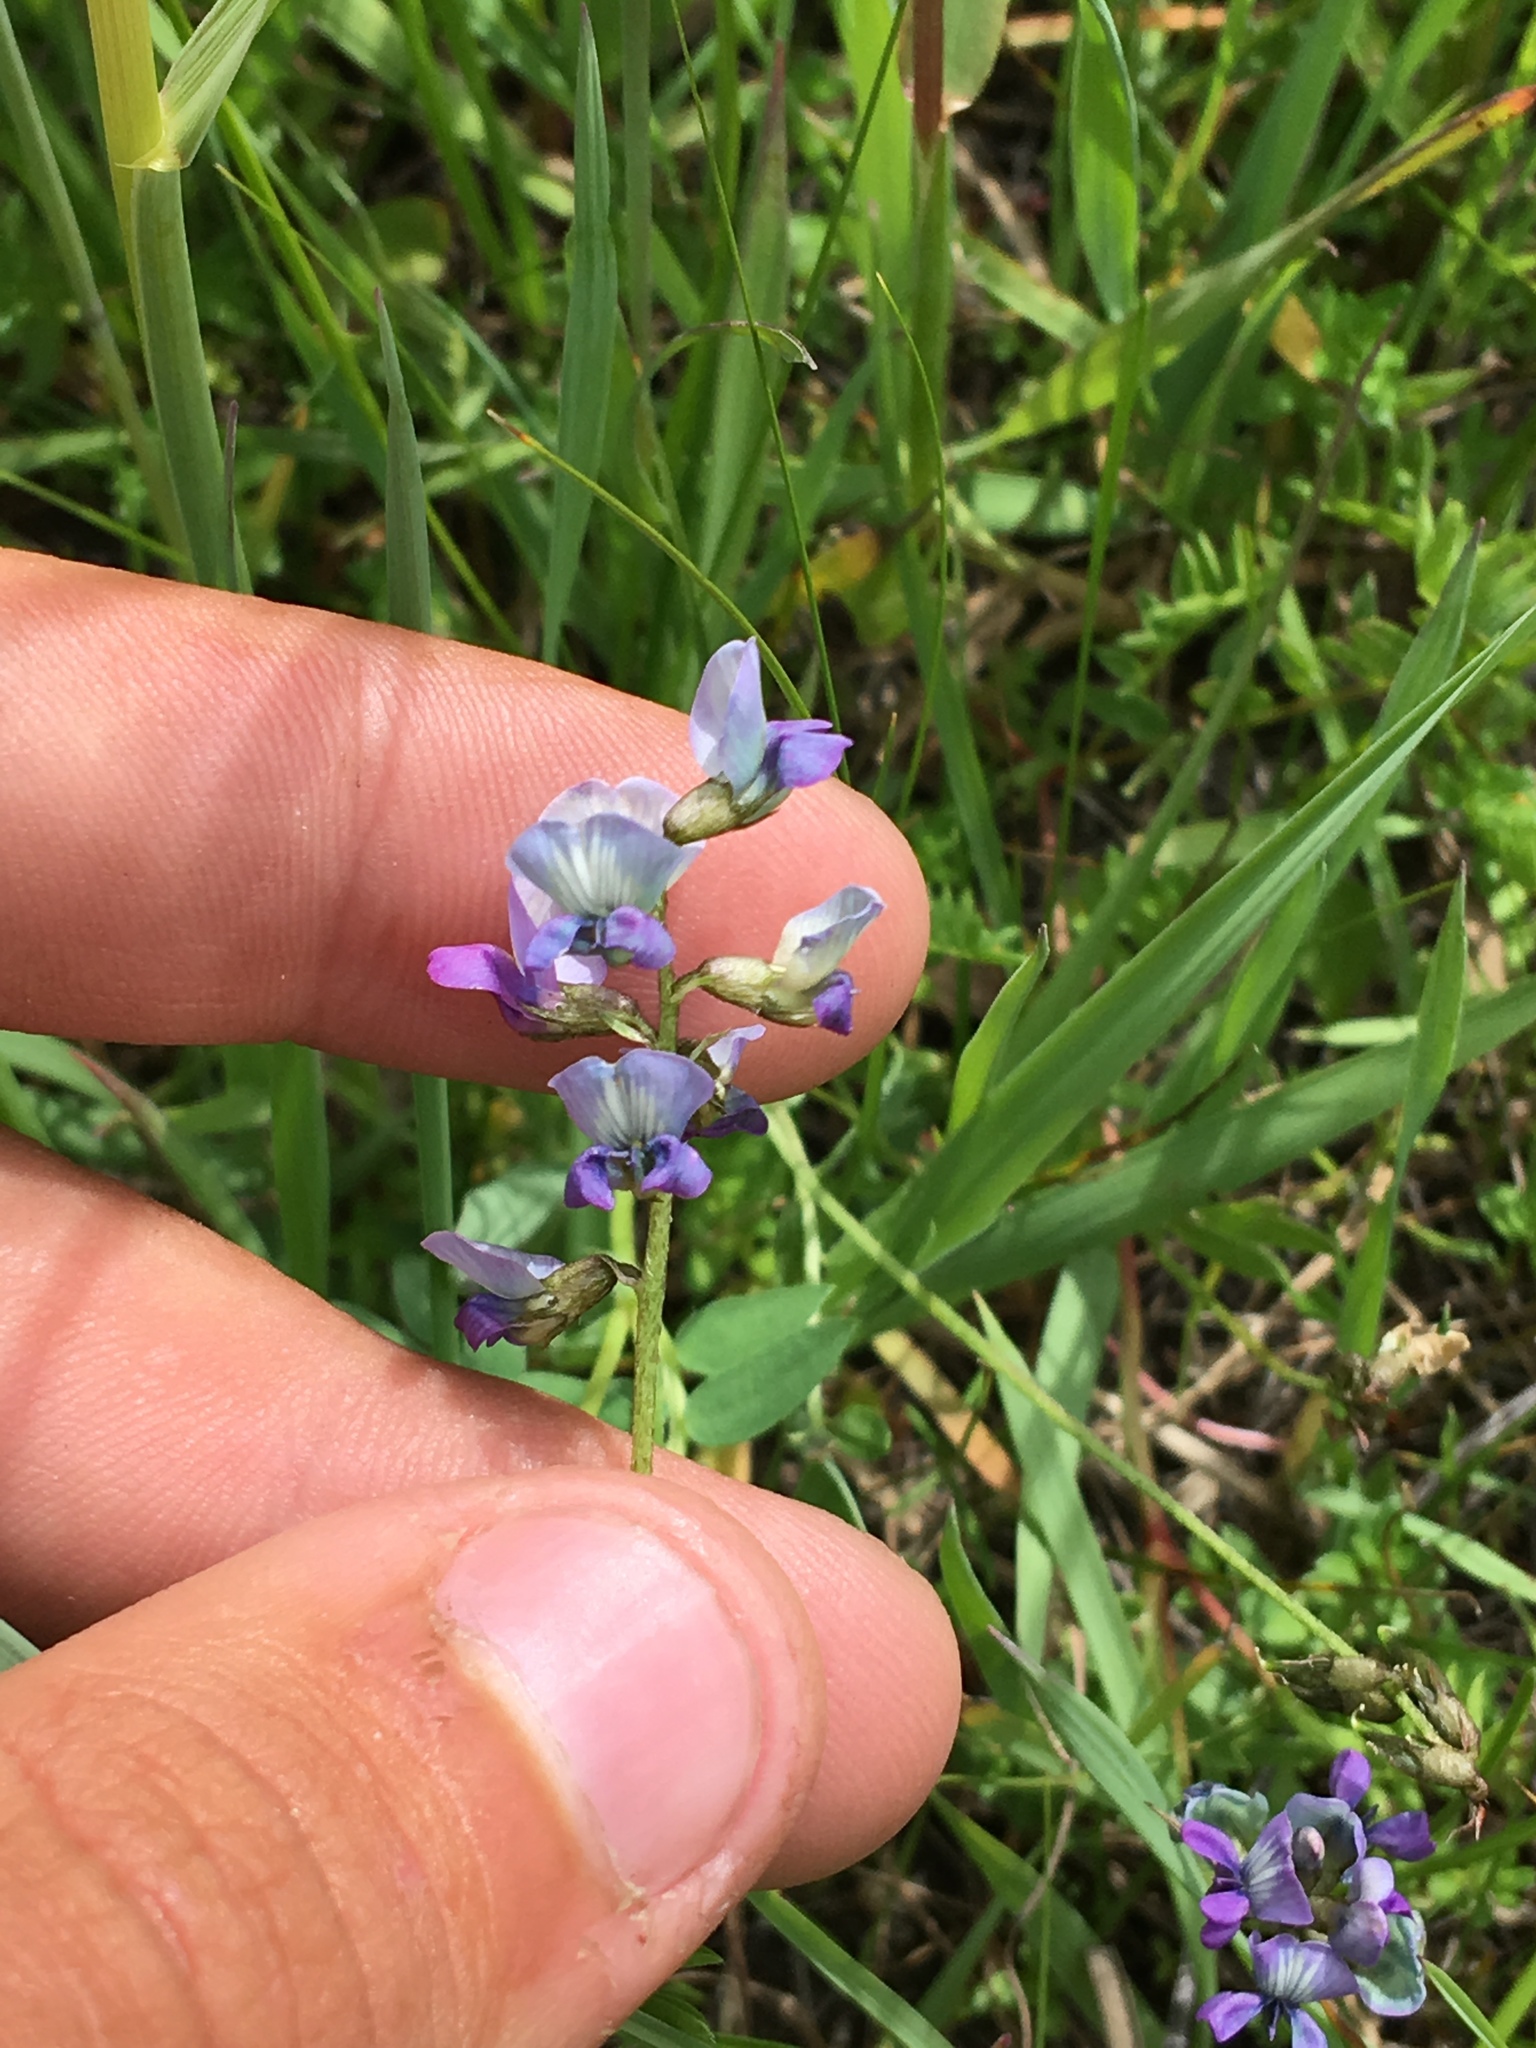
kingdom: Plantae
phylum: Tracheophyta
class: Magnoliopsida
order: Fabales
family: Fabaceae
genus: Oxytropis
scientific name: Oxytropis glabra
